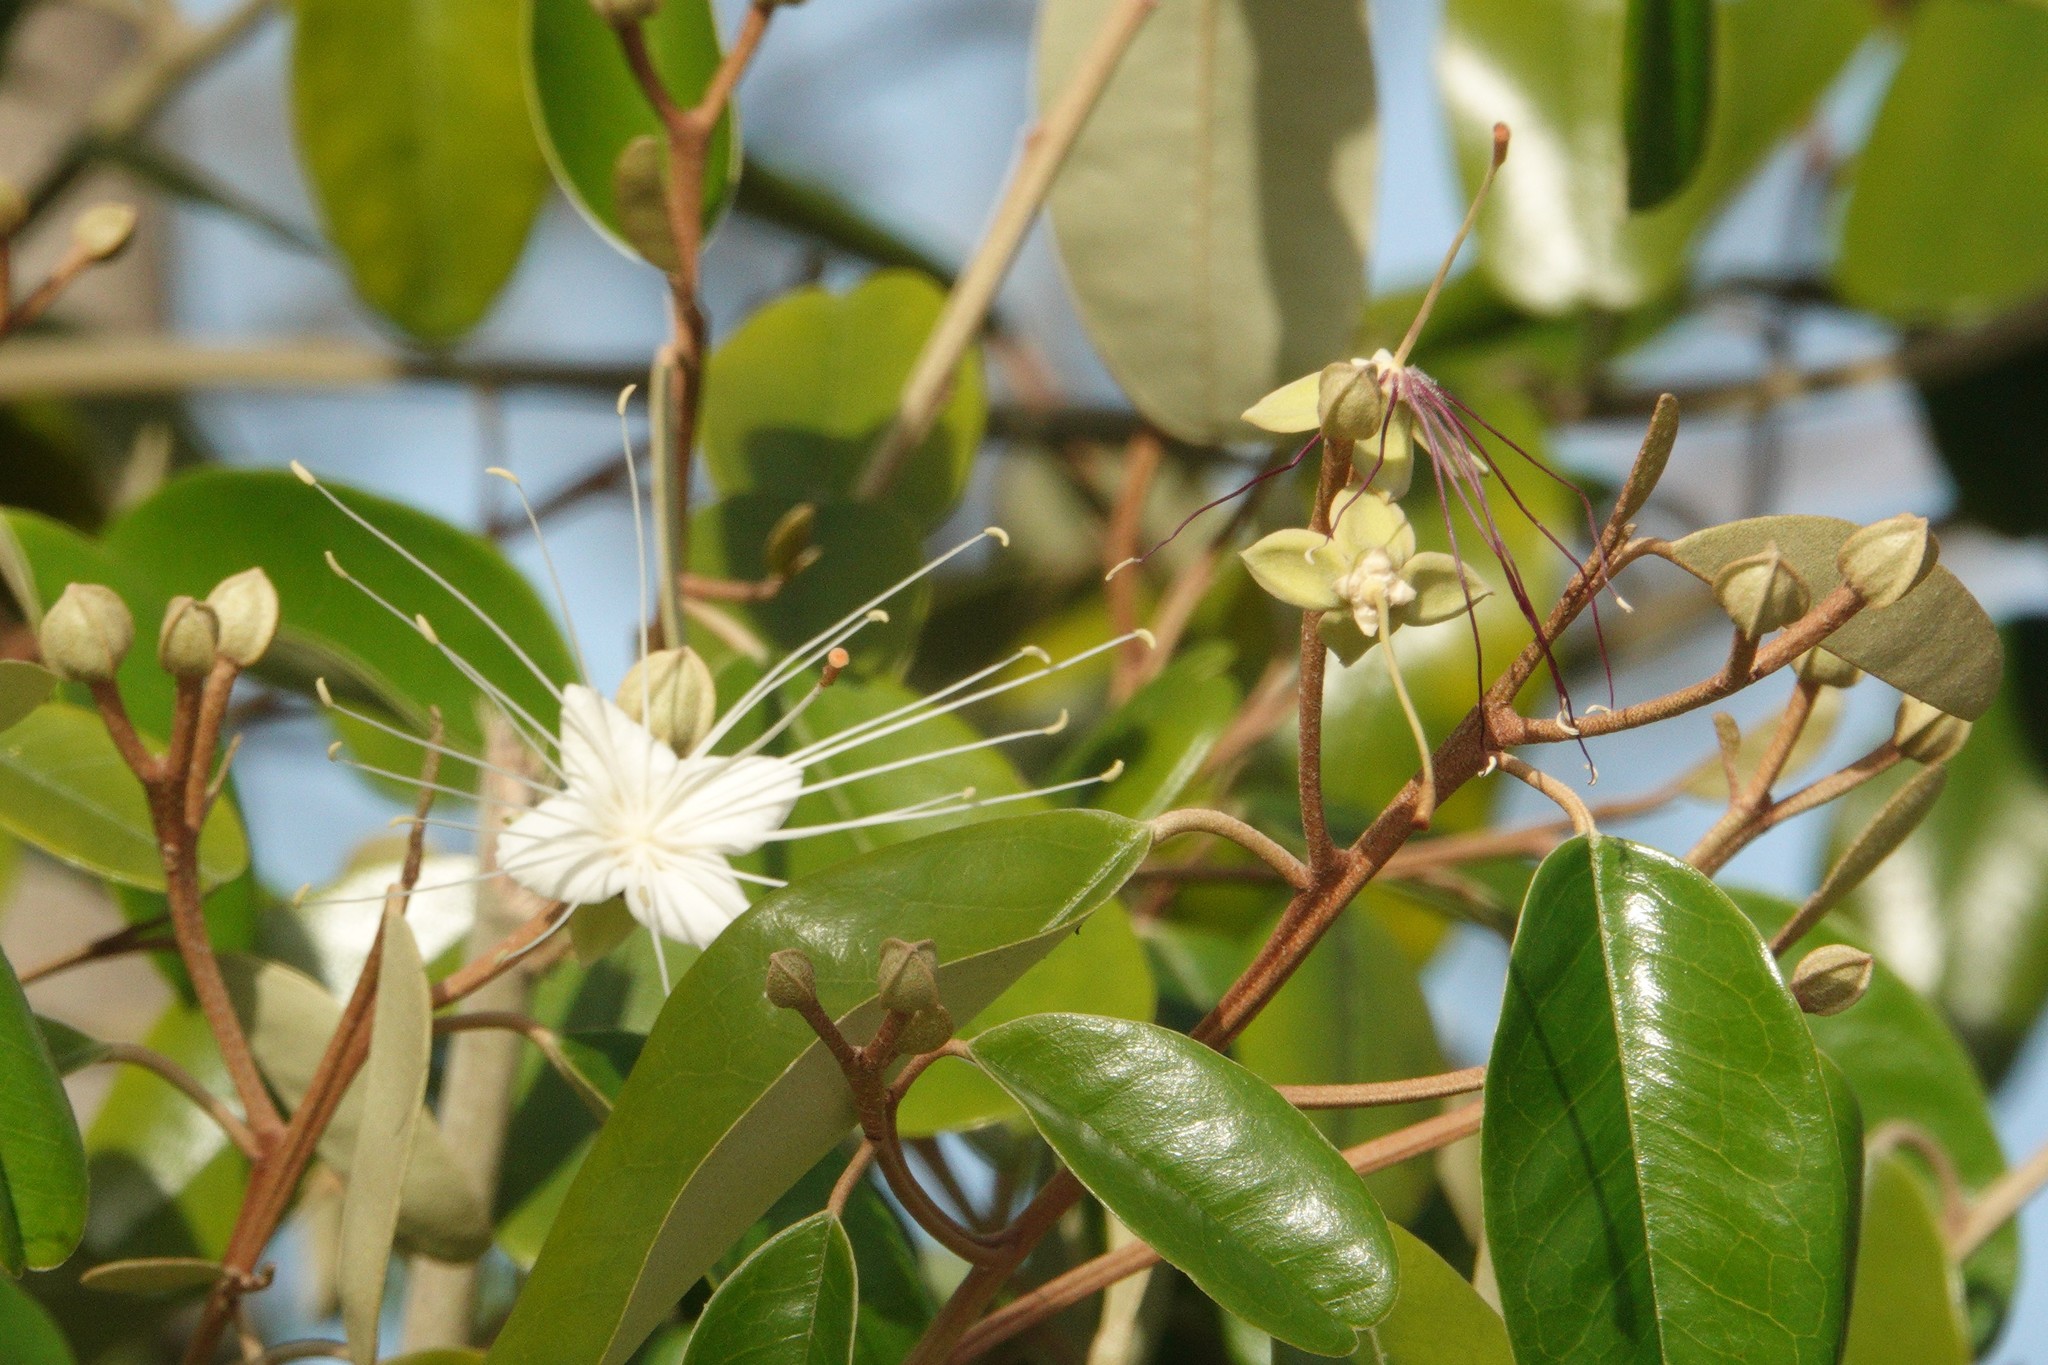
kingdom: Plantae
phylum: Tracheophyta
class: Magnoliopsida
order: Brassicales
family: Capparaceae
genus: Quadrella
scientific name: Quadrella cynophallophora
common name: Black willow
